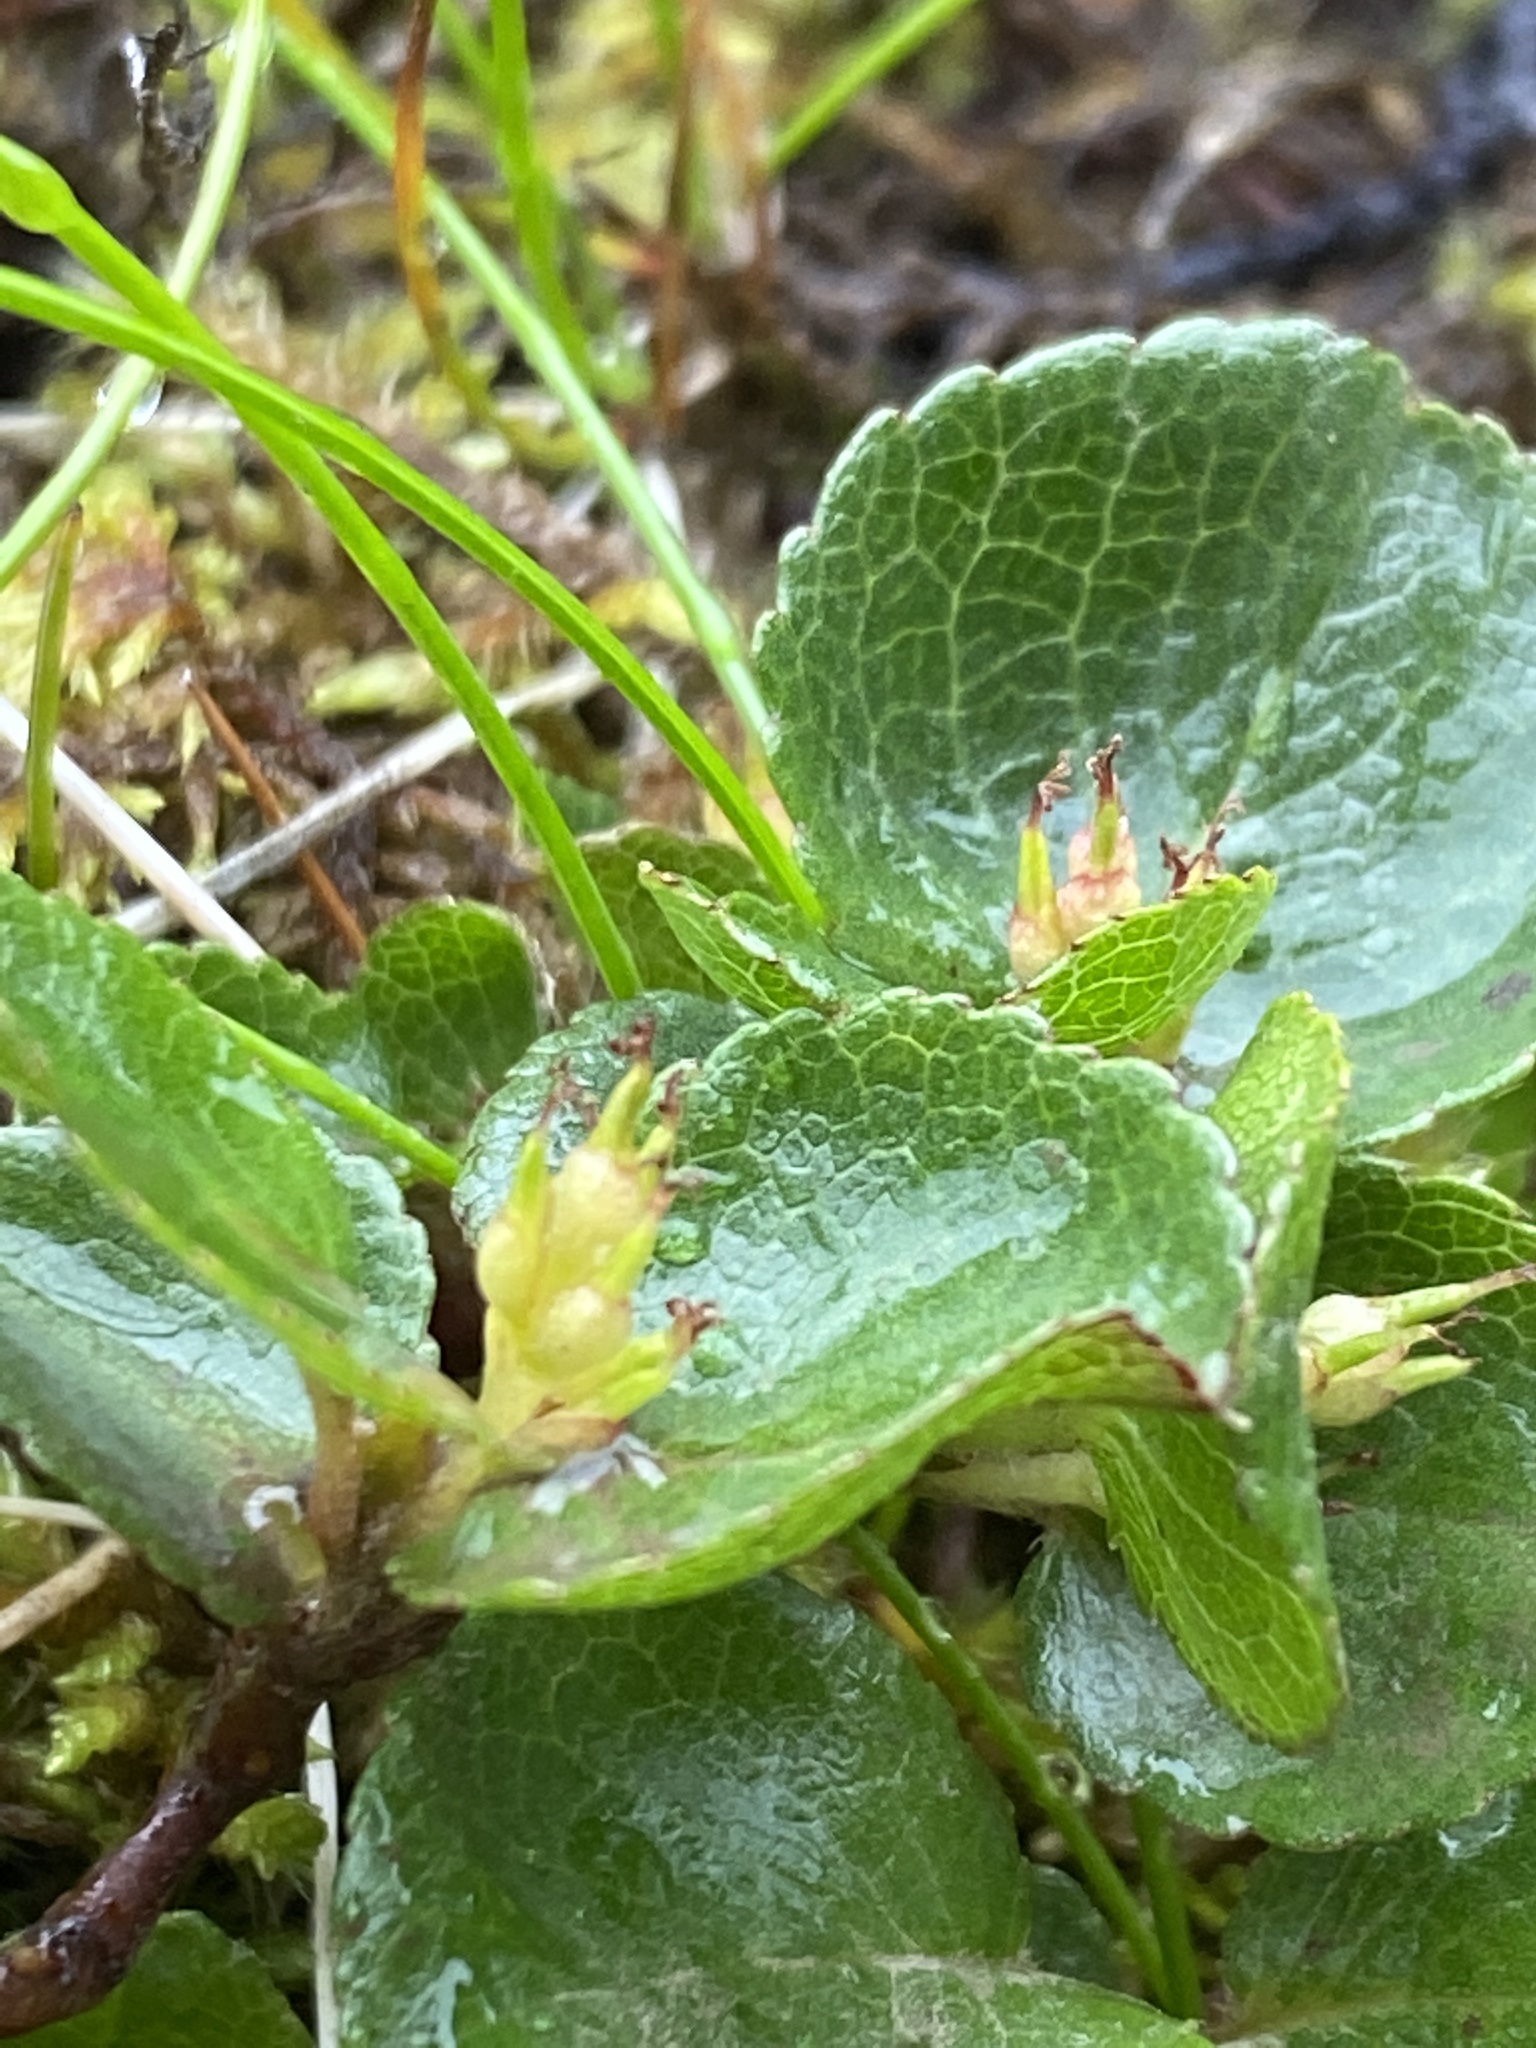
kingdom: Plantae
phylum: Tracheophyta
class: Magnoliopsida
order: Malpighiales
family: Salicaceae
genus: Salix
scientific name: Salix herbacea
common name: Dwarf willow
